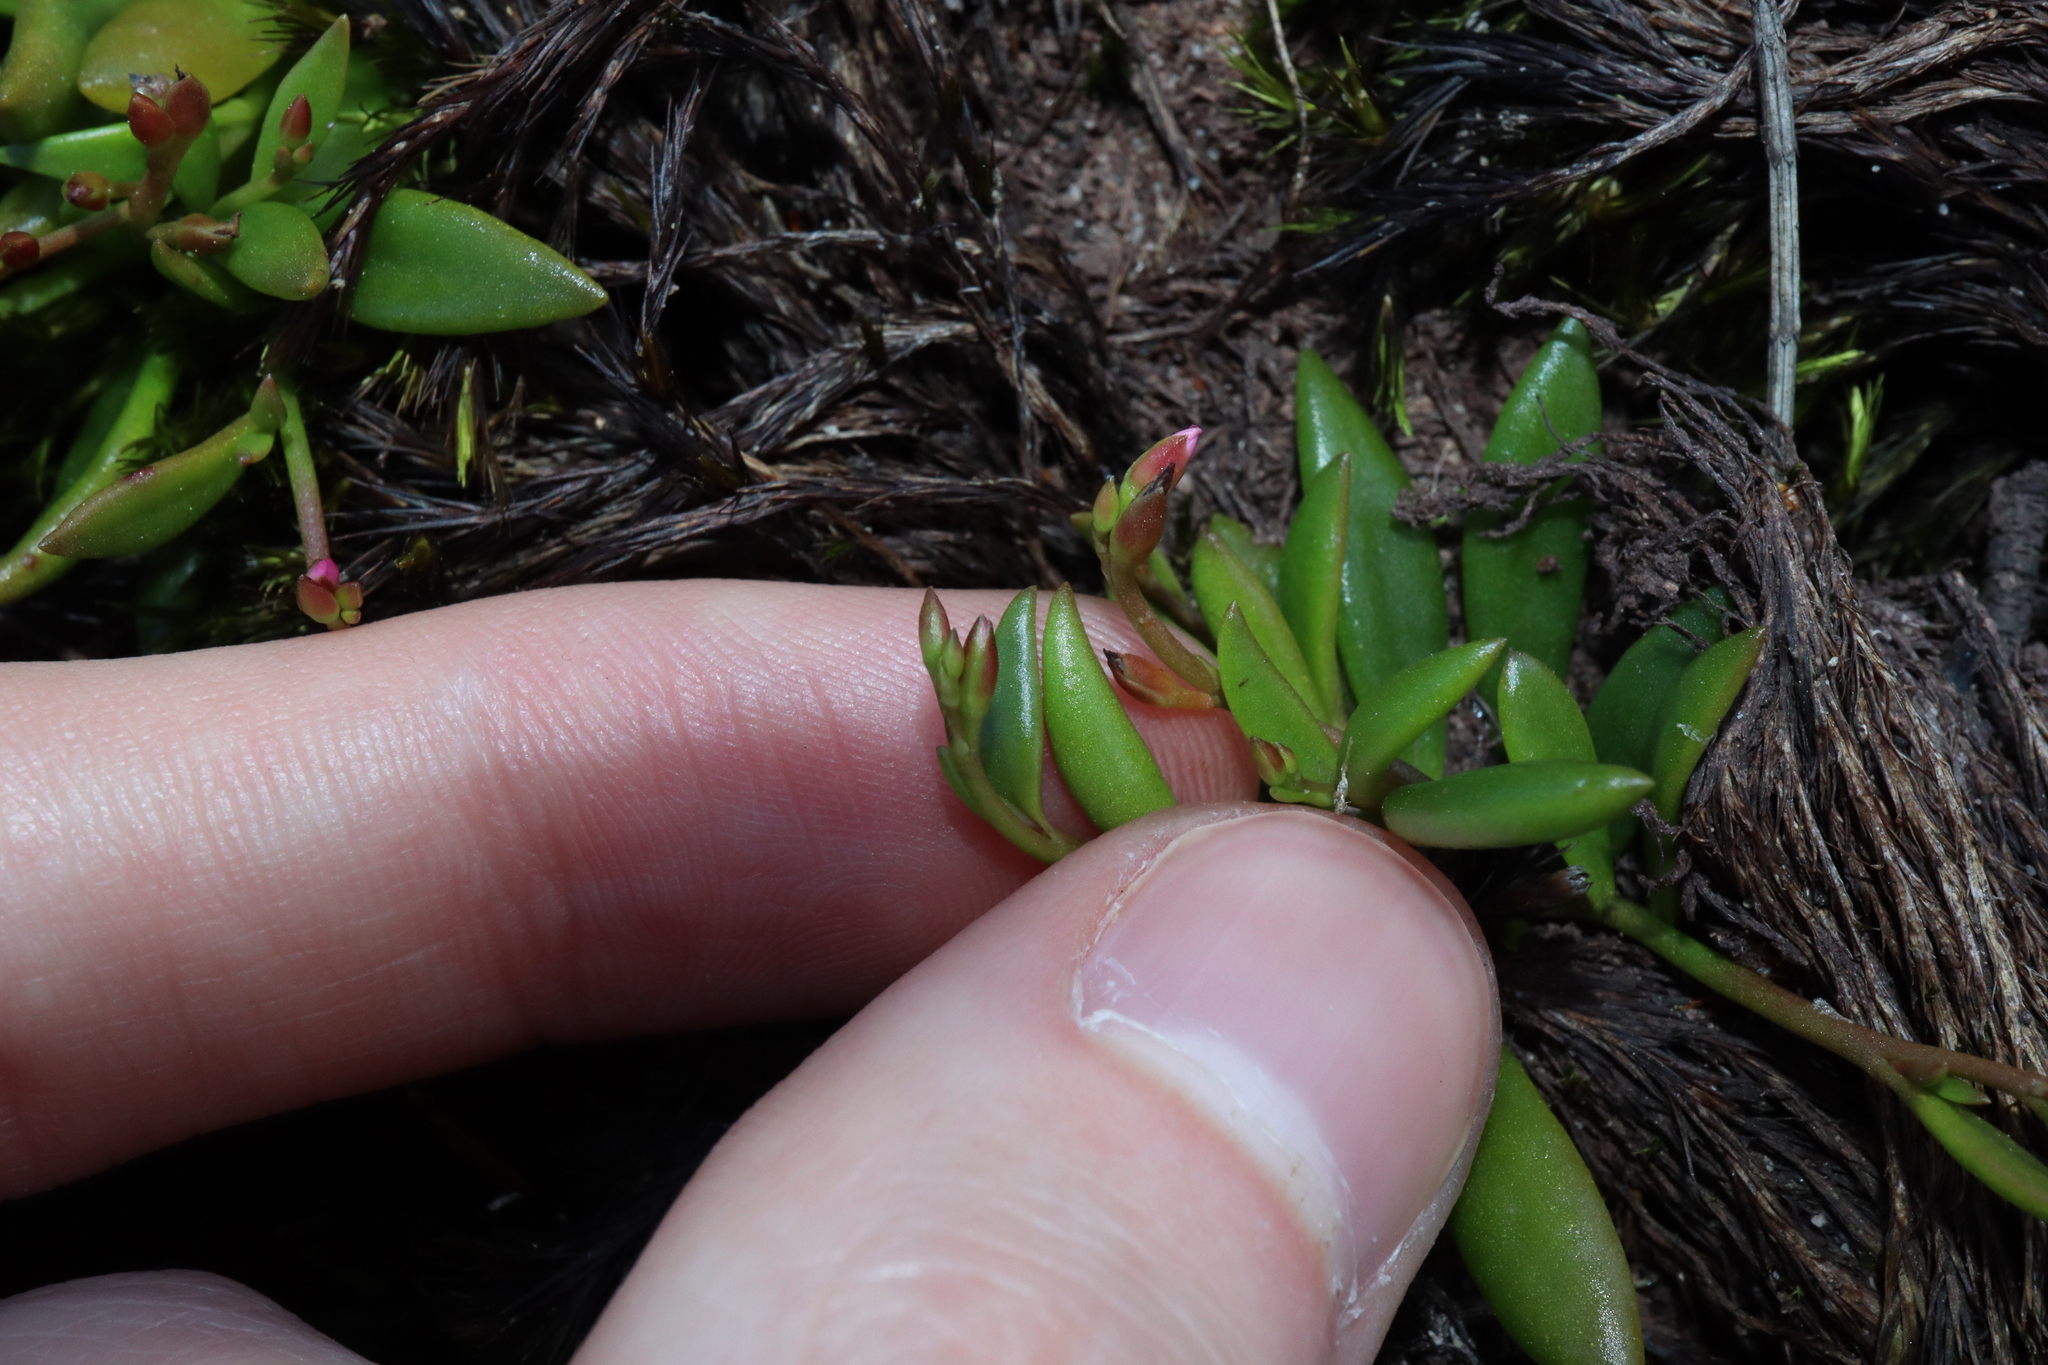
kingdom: Plantae
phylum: Tracheophyta
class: Magnoliopsida
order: Caryophyllales
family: Montiaceae
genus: Rumicastrum
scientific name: Rumicastrum pickeringii
